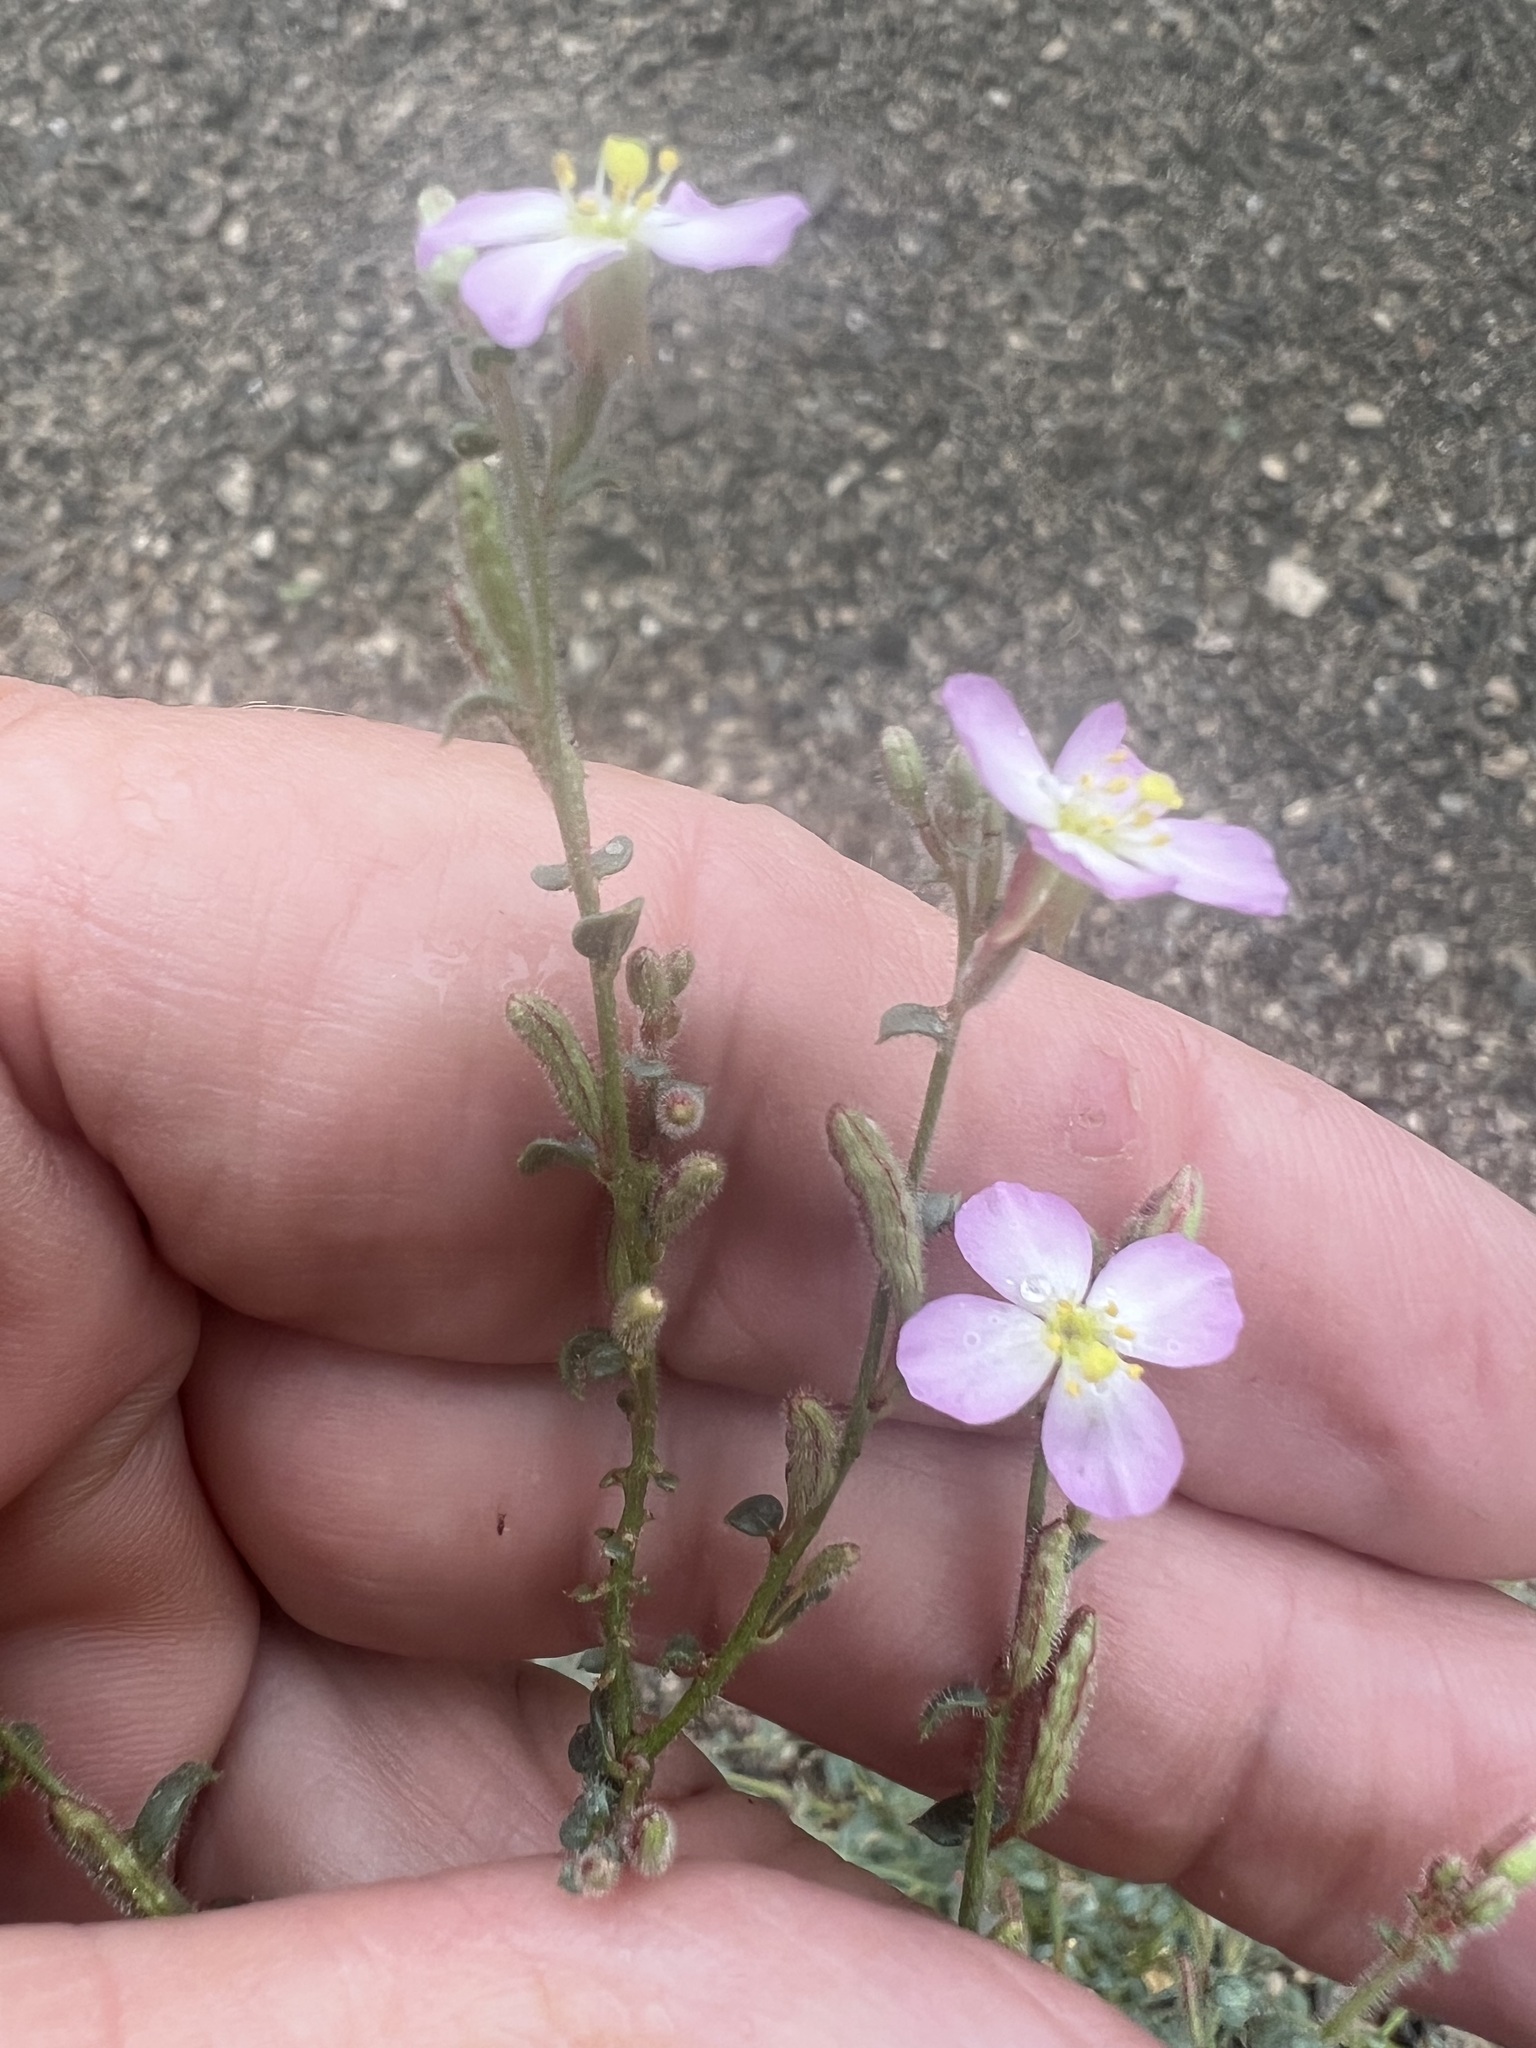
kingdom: Plantae
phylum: Tracheophyta
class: Magnoliopsida
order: Myrtales
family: Onagraceae
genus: Chylismia
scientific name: Chylismia heterochroma
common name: Shockley's evening primrose
